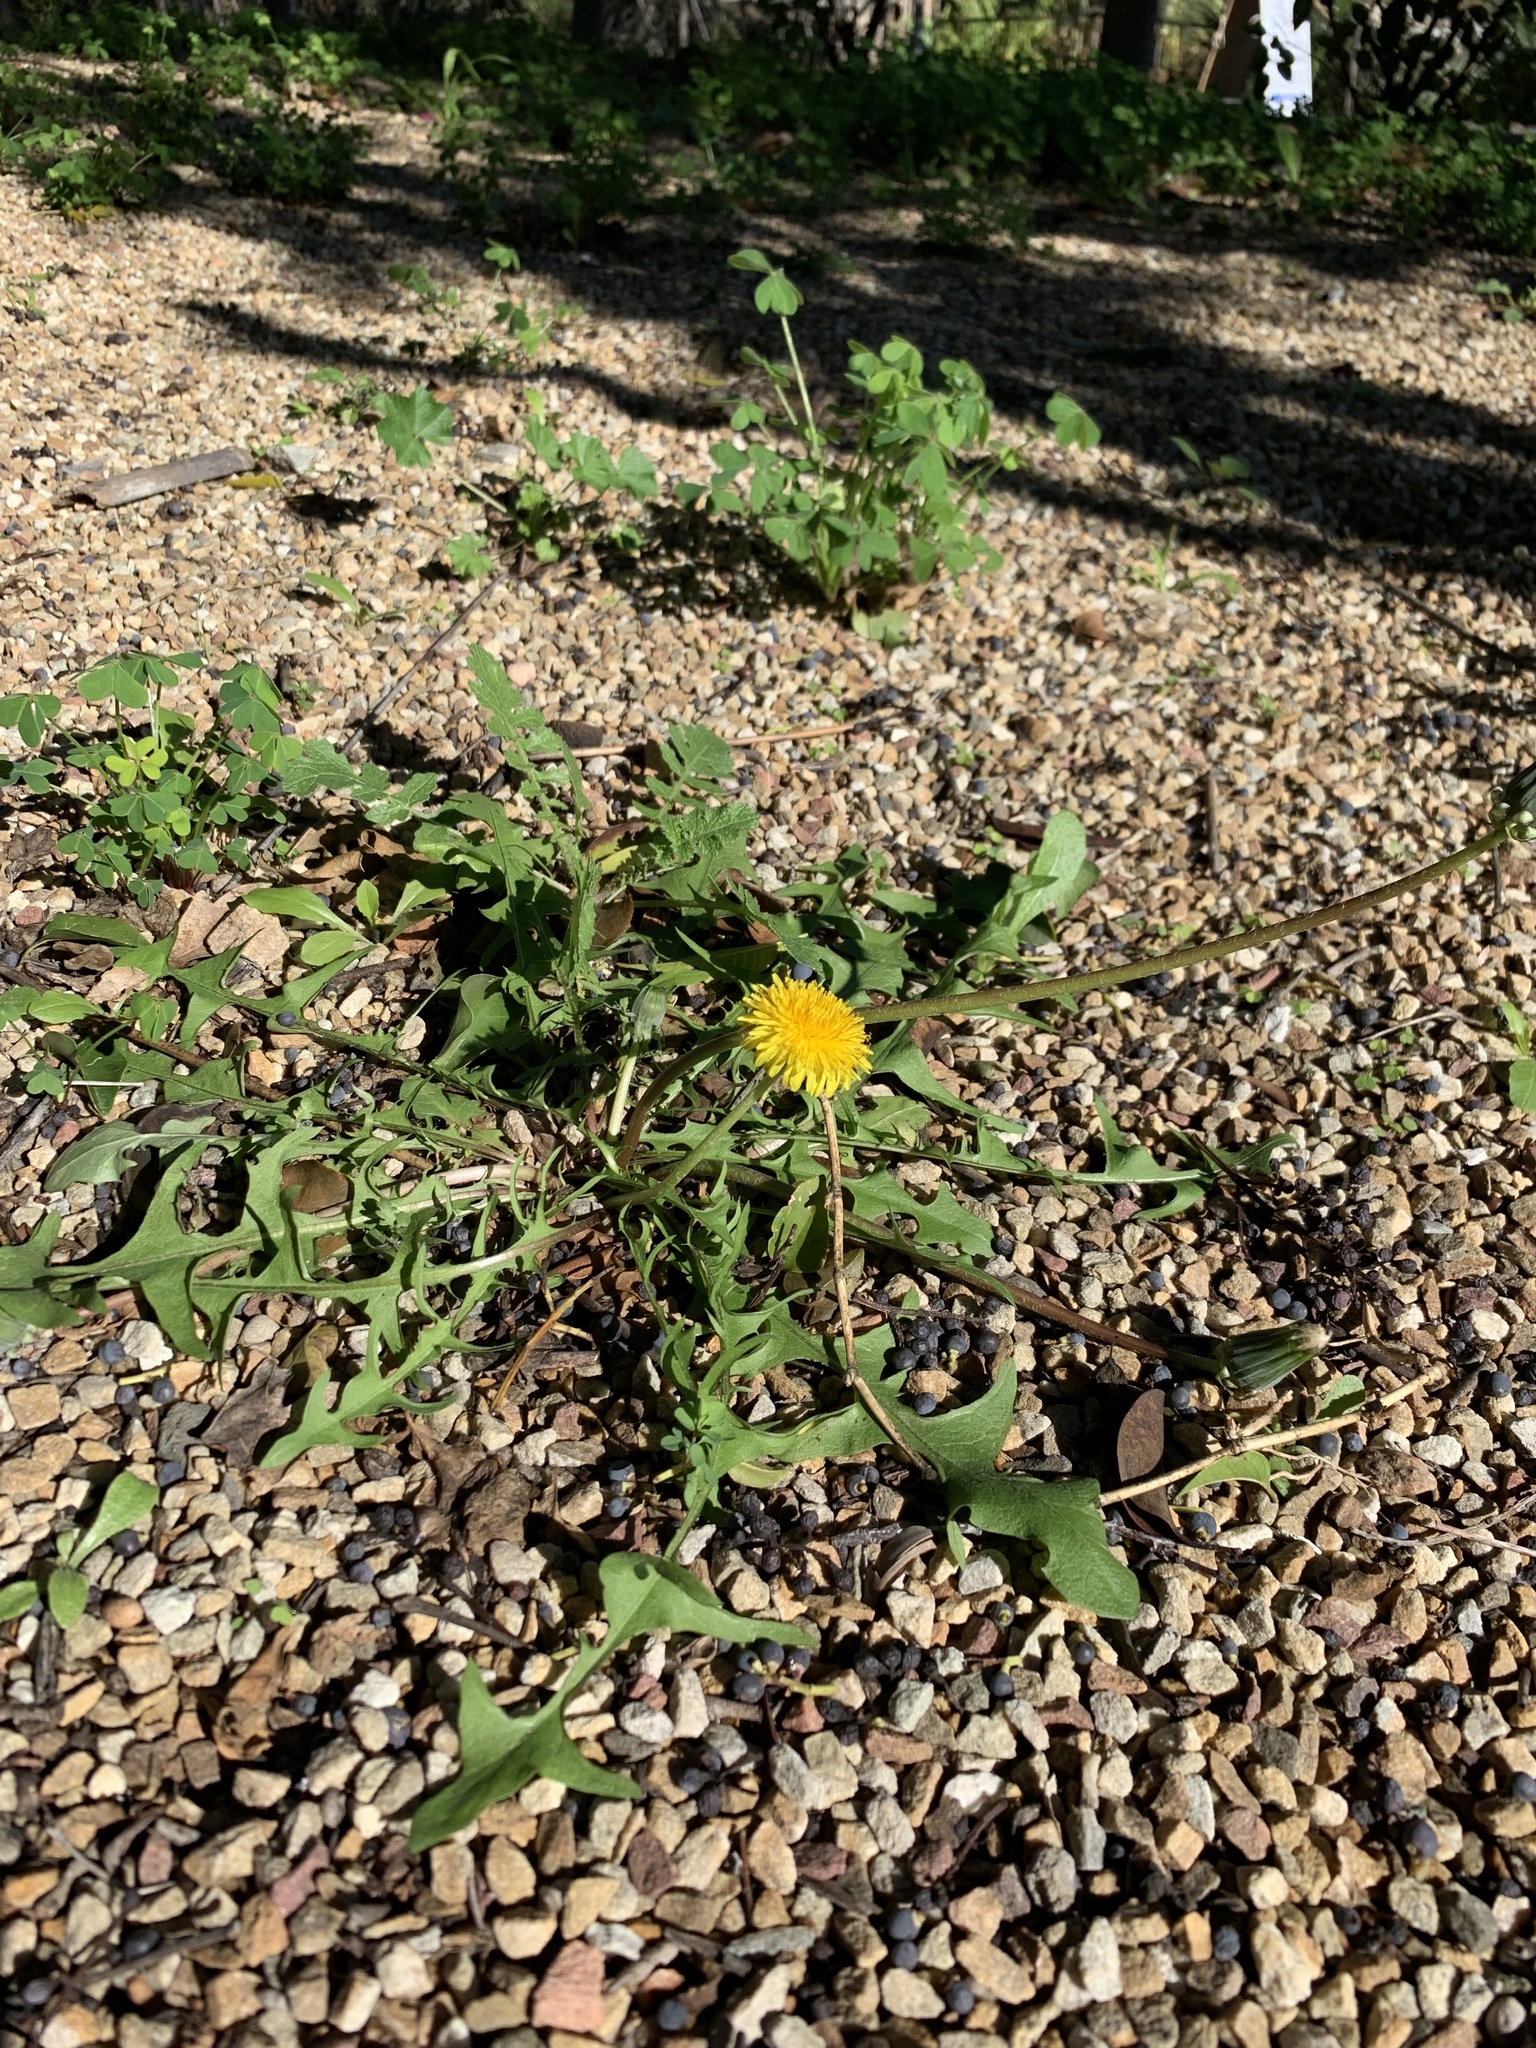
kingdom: Plantae
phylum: Tracheophyta
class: Magnoliopsida
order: Asterales
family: Asteraceae
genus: Taraxacum
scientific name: Taraxacum officinale
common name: Common dandelion
